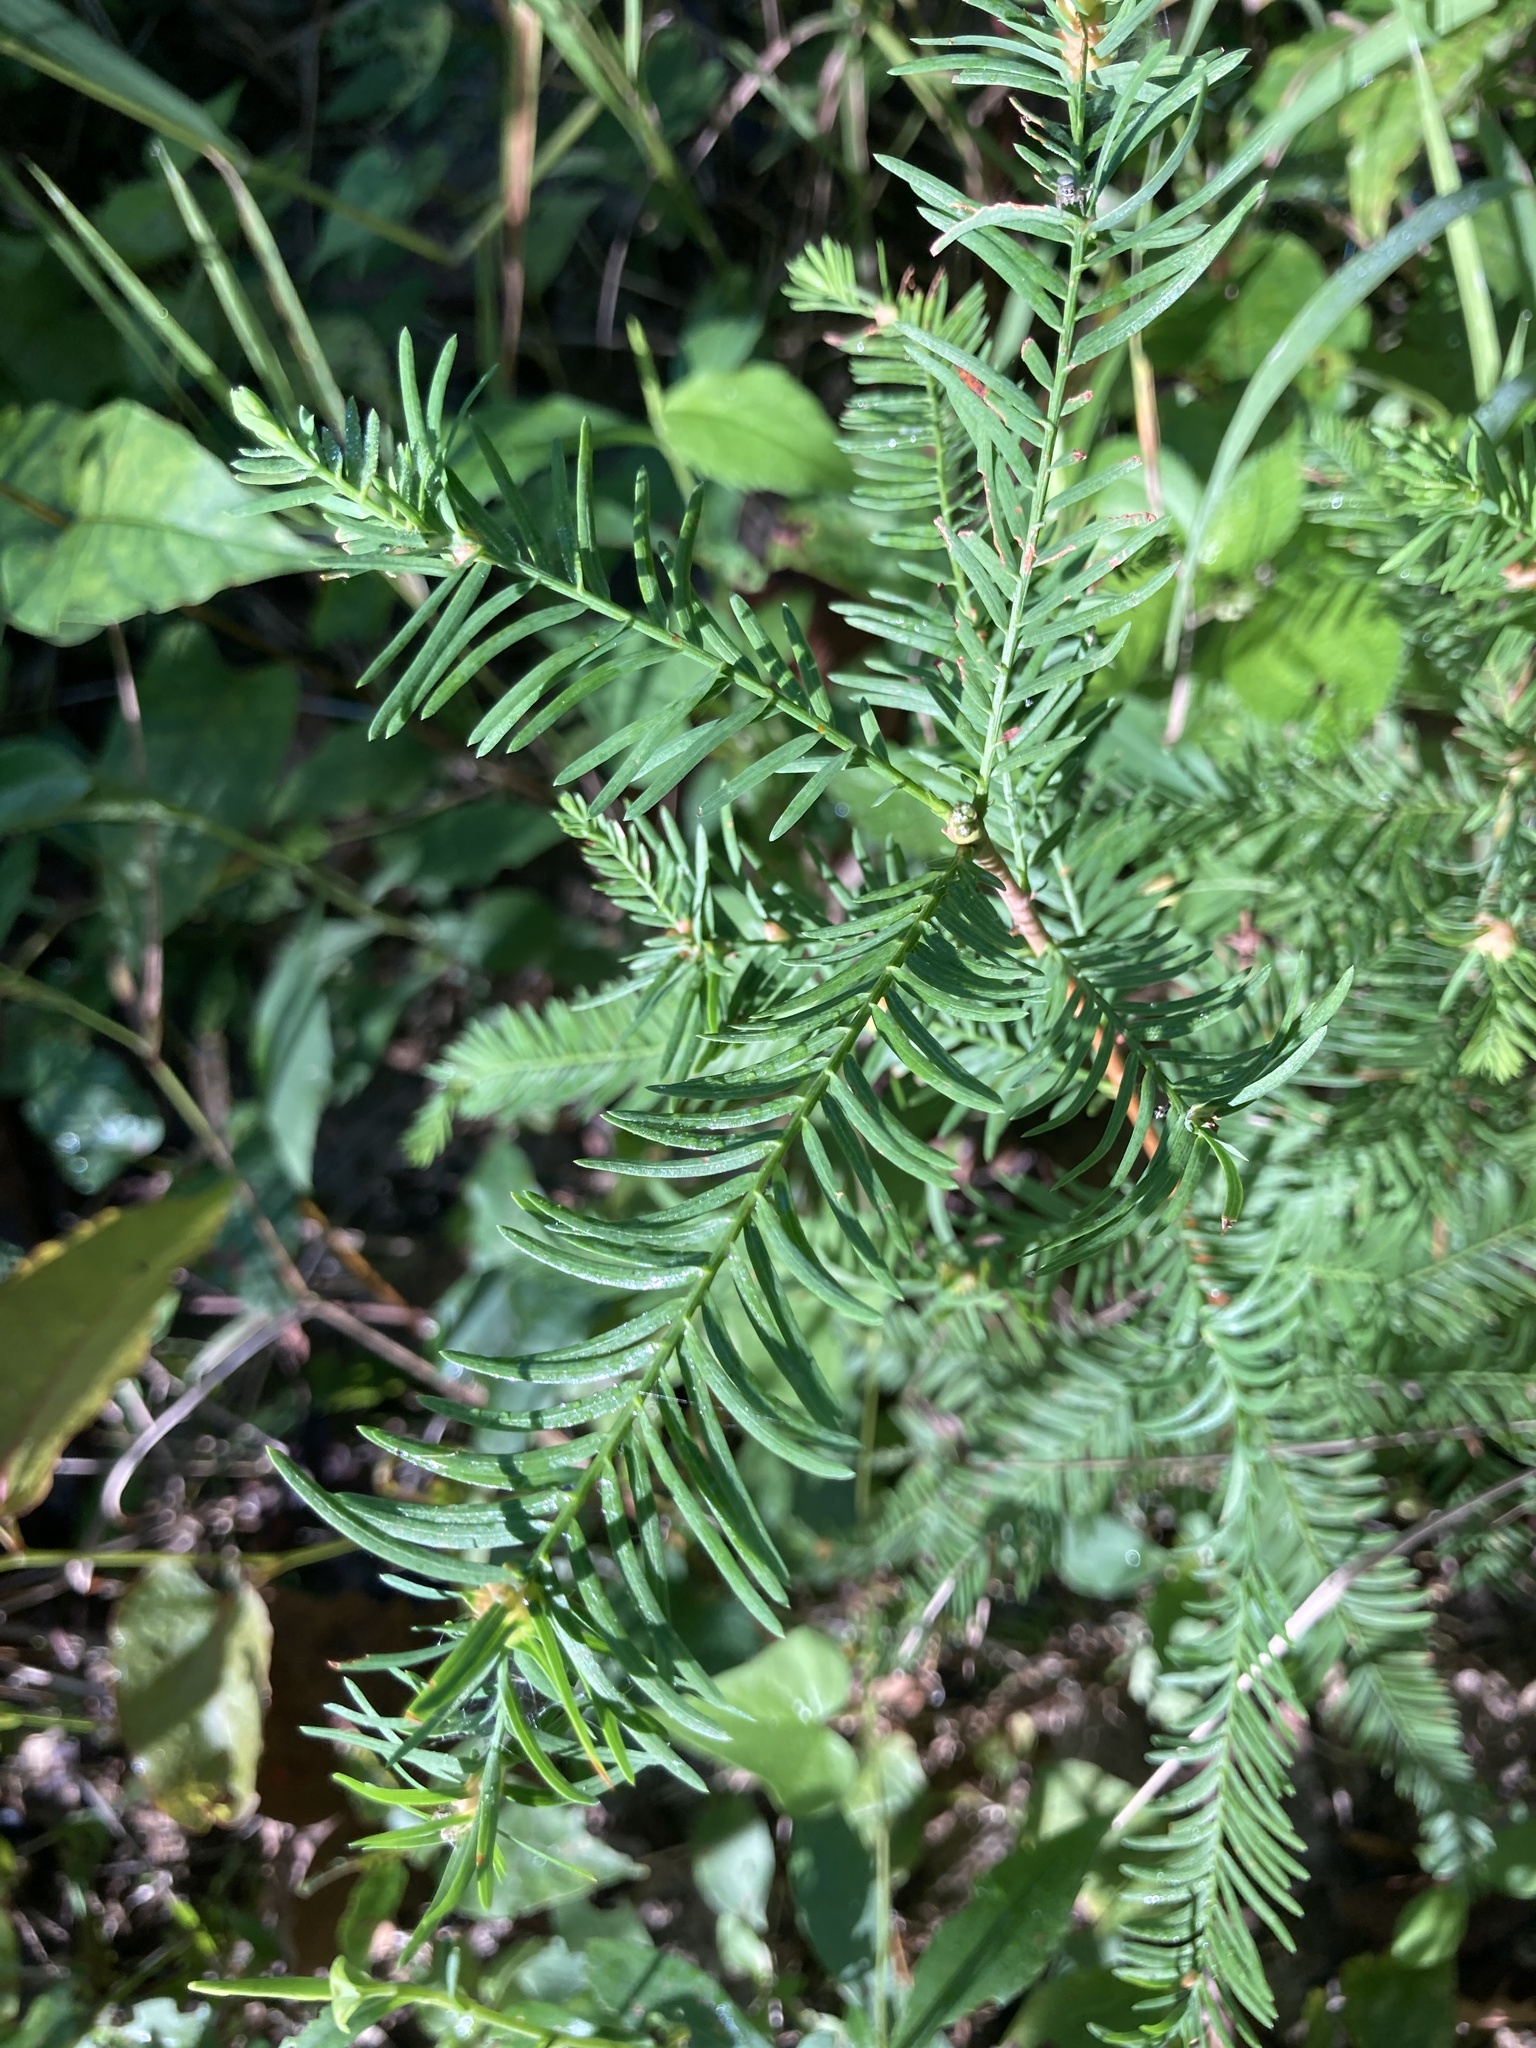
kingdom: Plantae
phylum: Tracheophyta
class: Pinopsida
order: Pinales
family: Cupressaceae
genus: Taxodium
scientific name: Taxodium distichum
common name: Bald cypress
